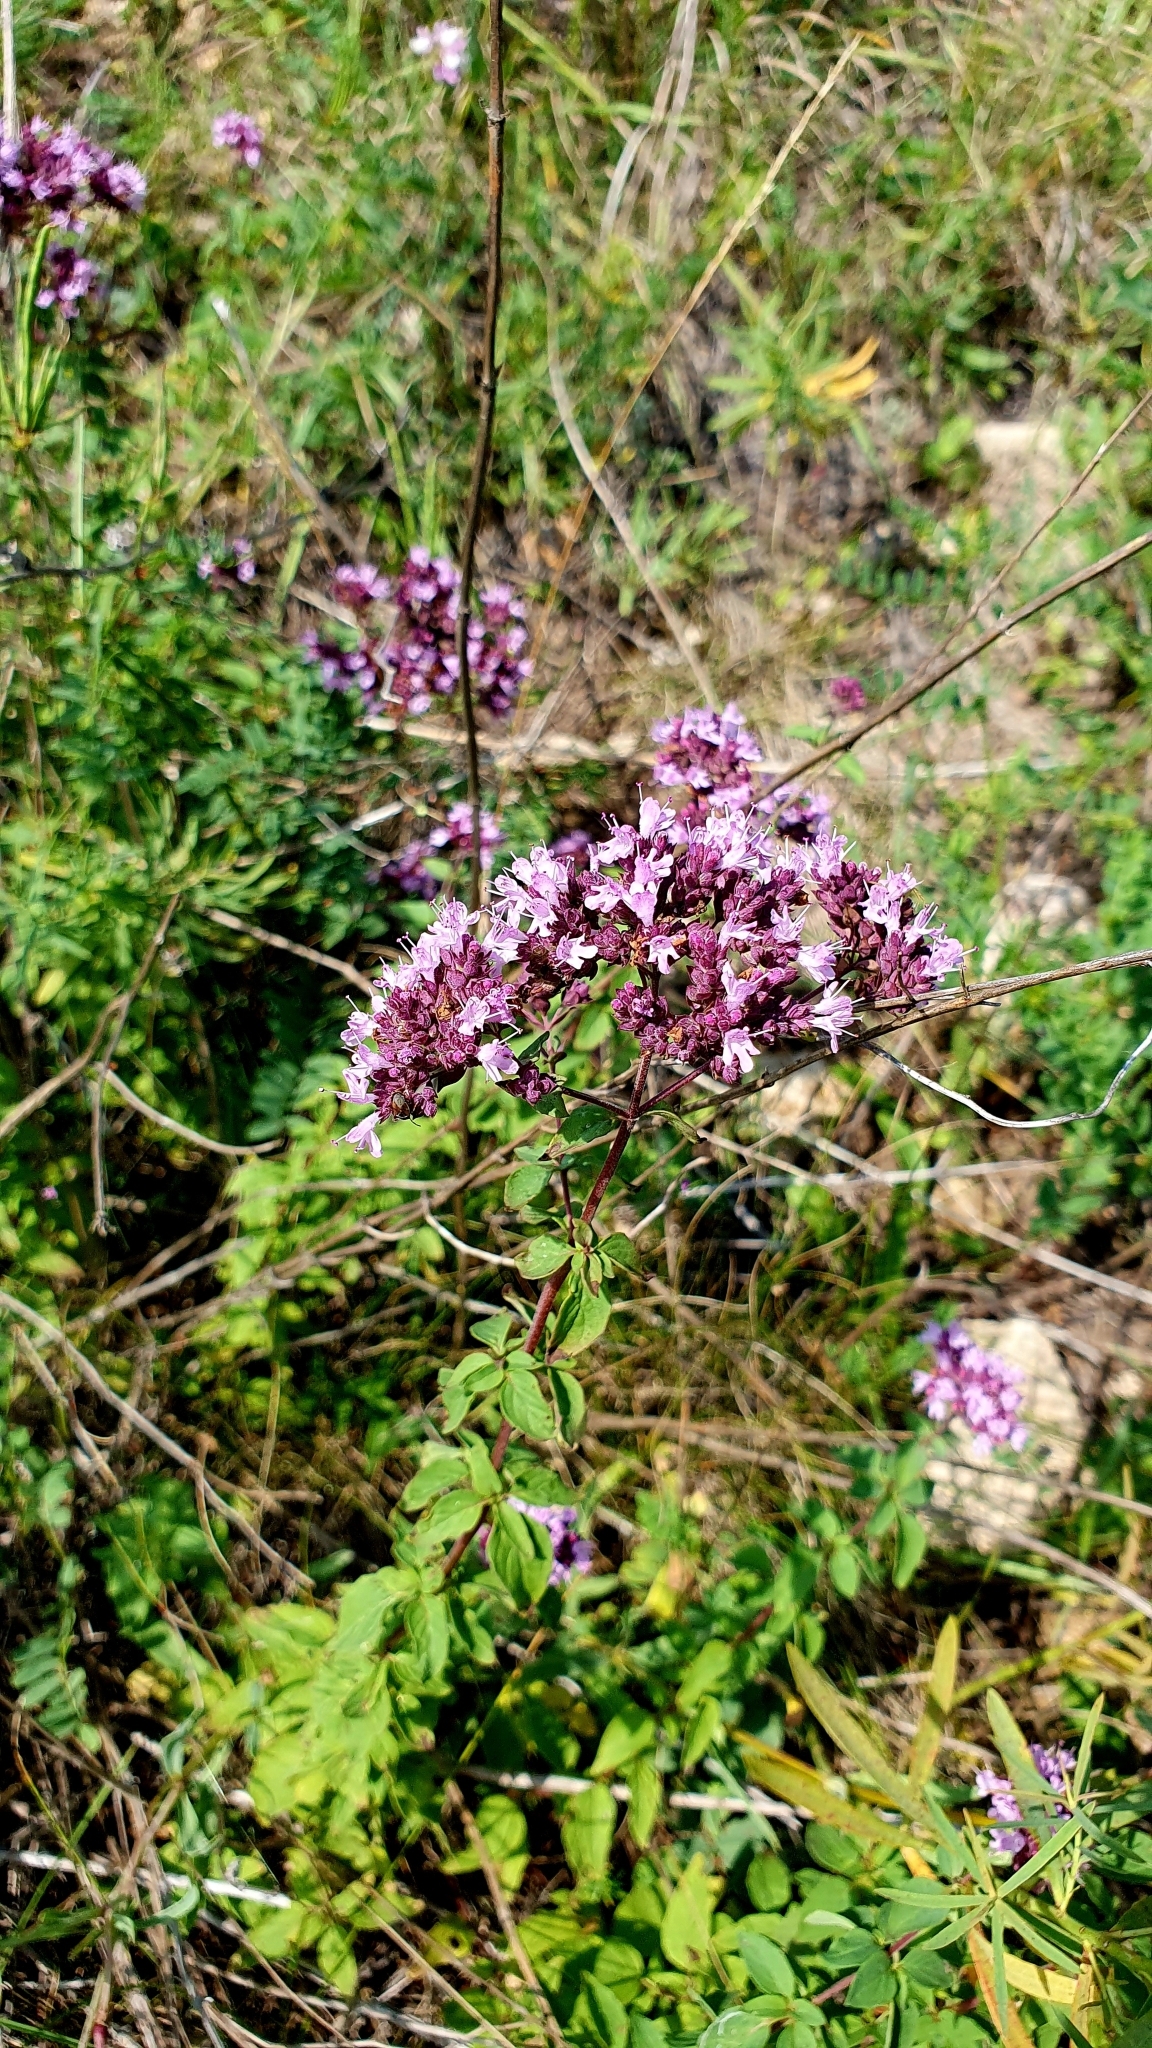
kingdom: Plantae
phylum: Tracheophyta
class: Magnoliopsida
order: Lamiales
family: Lamiaceae
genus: Origanum
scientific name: Origanum vulgare
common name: Wild marjoram
